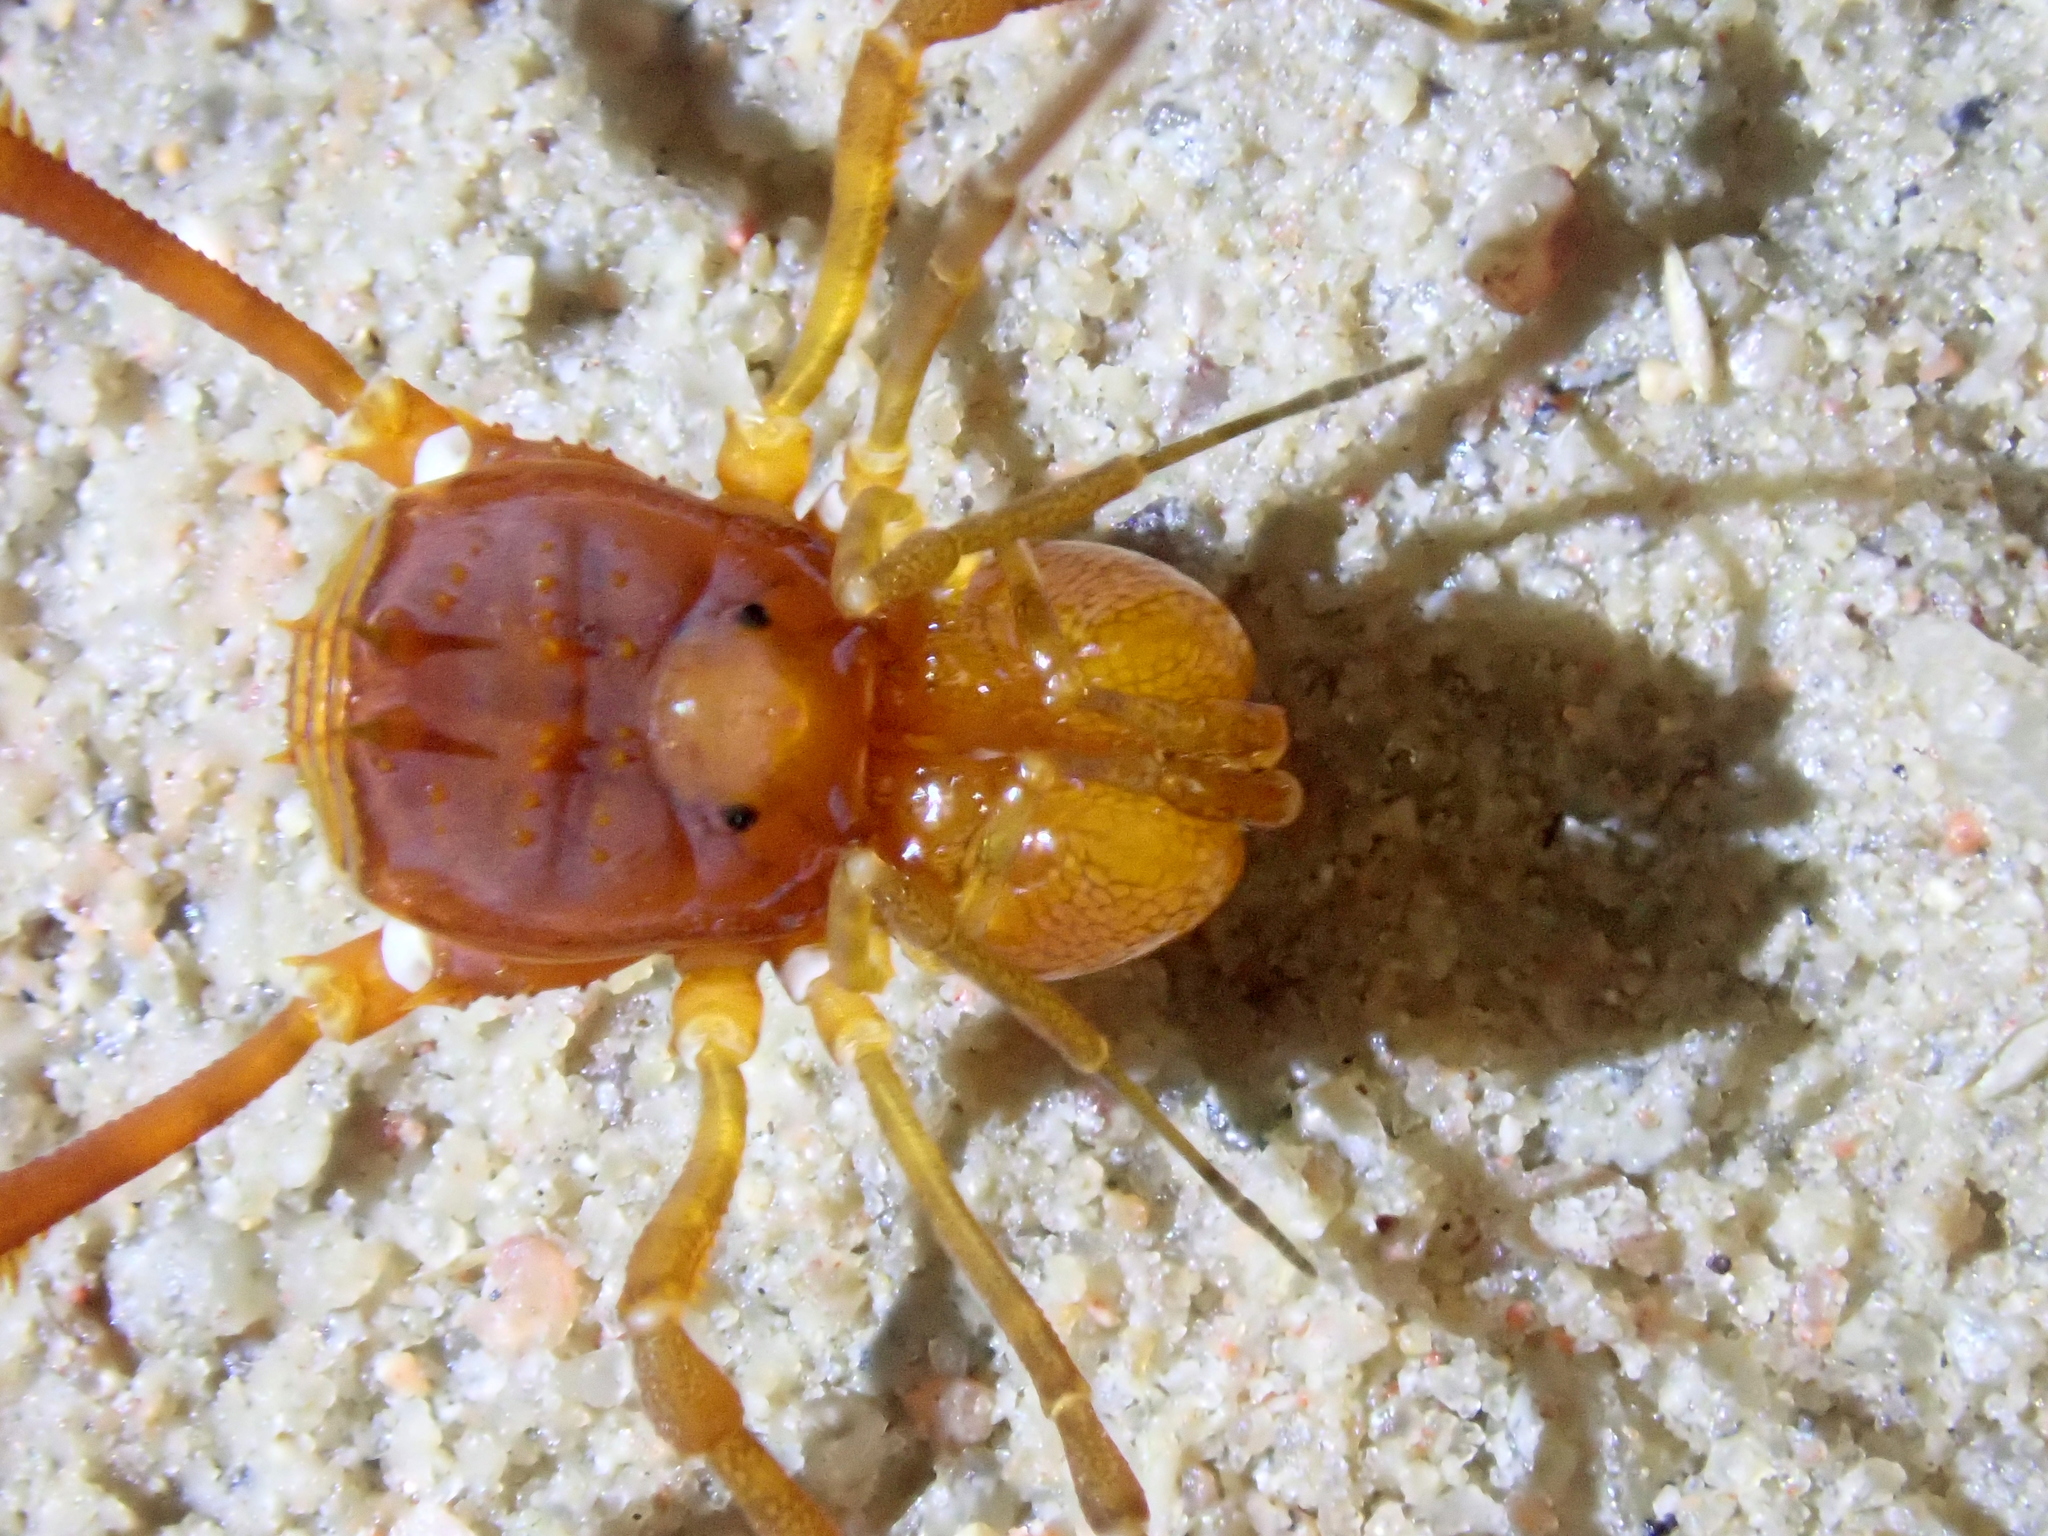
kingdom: Animalia
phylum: Arthropoda
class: Arachnida
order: Opiliones
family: Stygnidae
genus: Stygnus
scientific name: Stygnus polyacanthus
